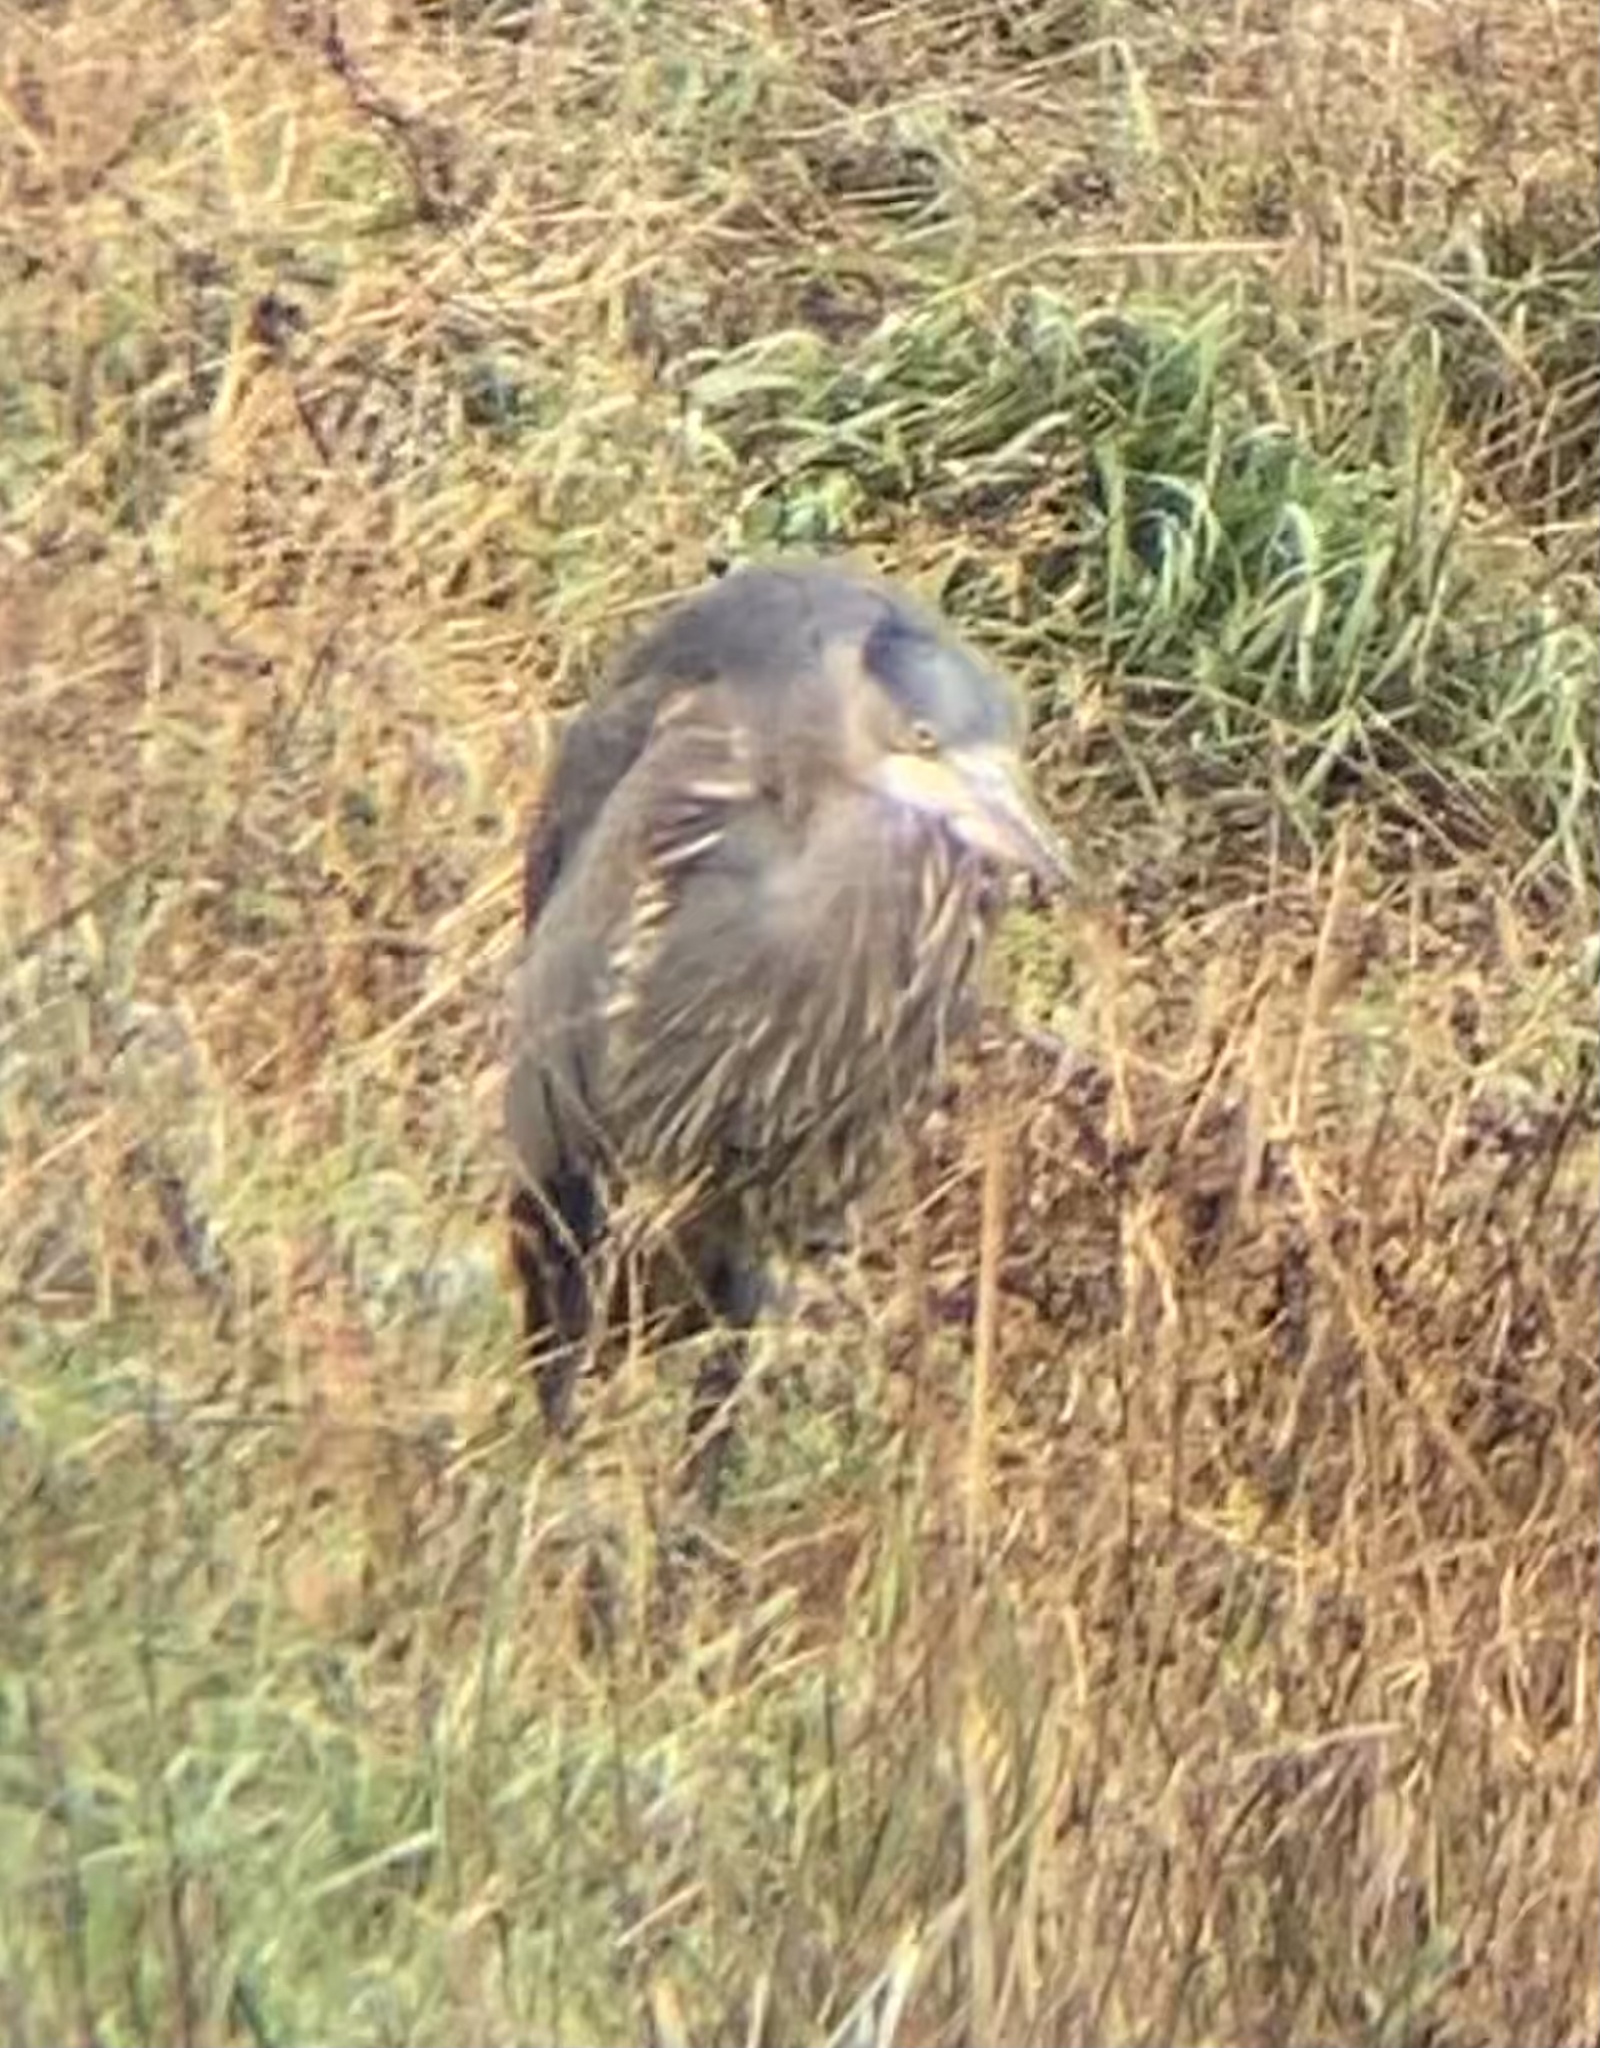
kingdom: Animalia
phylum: Chordata
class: Aves
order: Pelecaniformes
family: Ardeidae
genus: Ardea
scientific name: Ardea herodias
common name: Great blue heron
